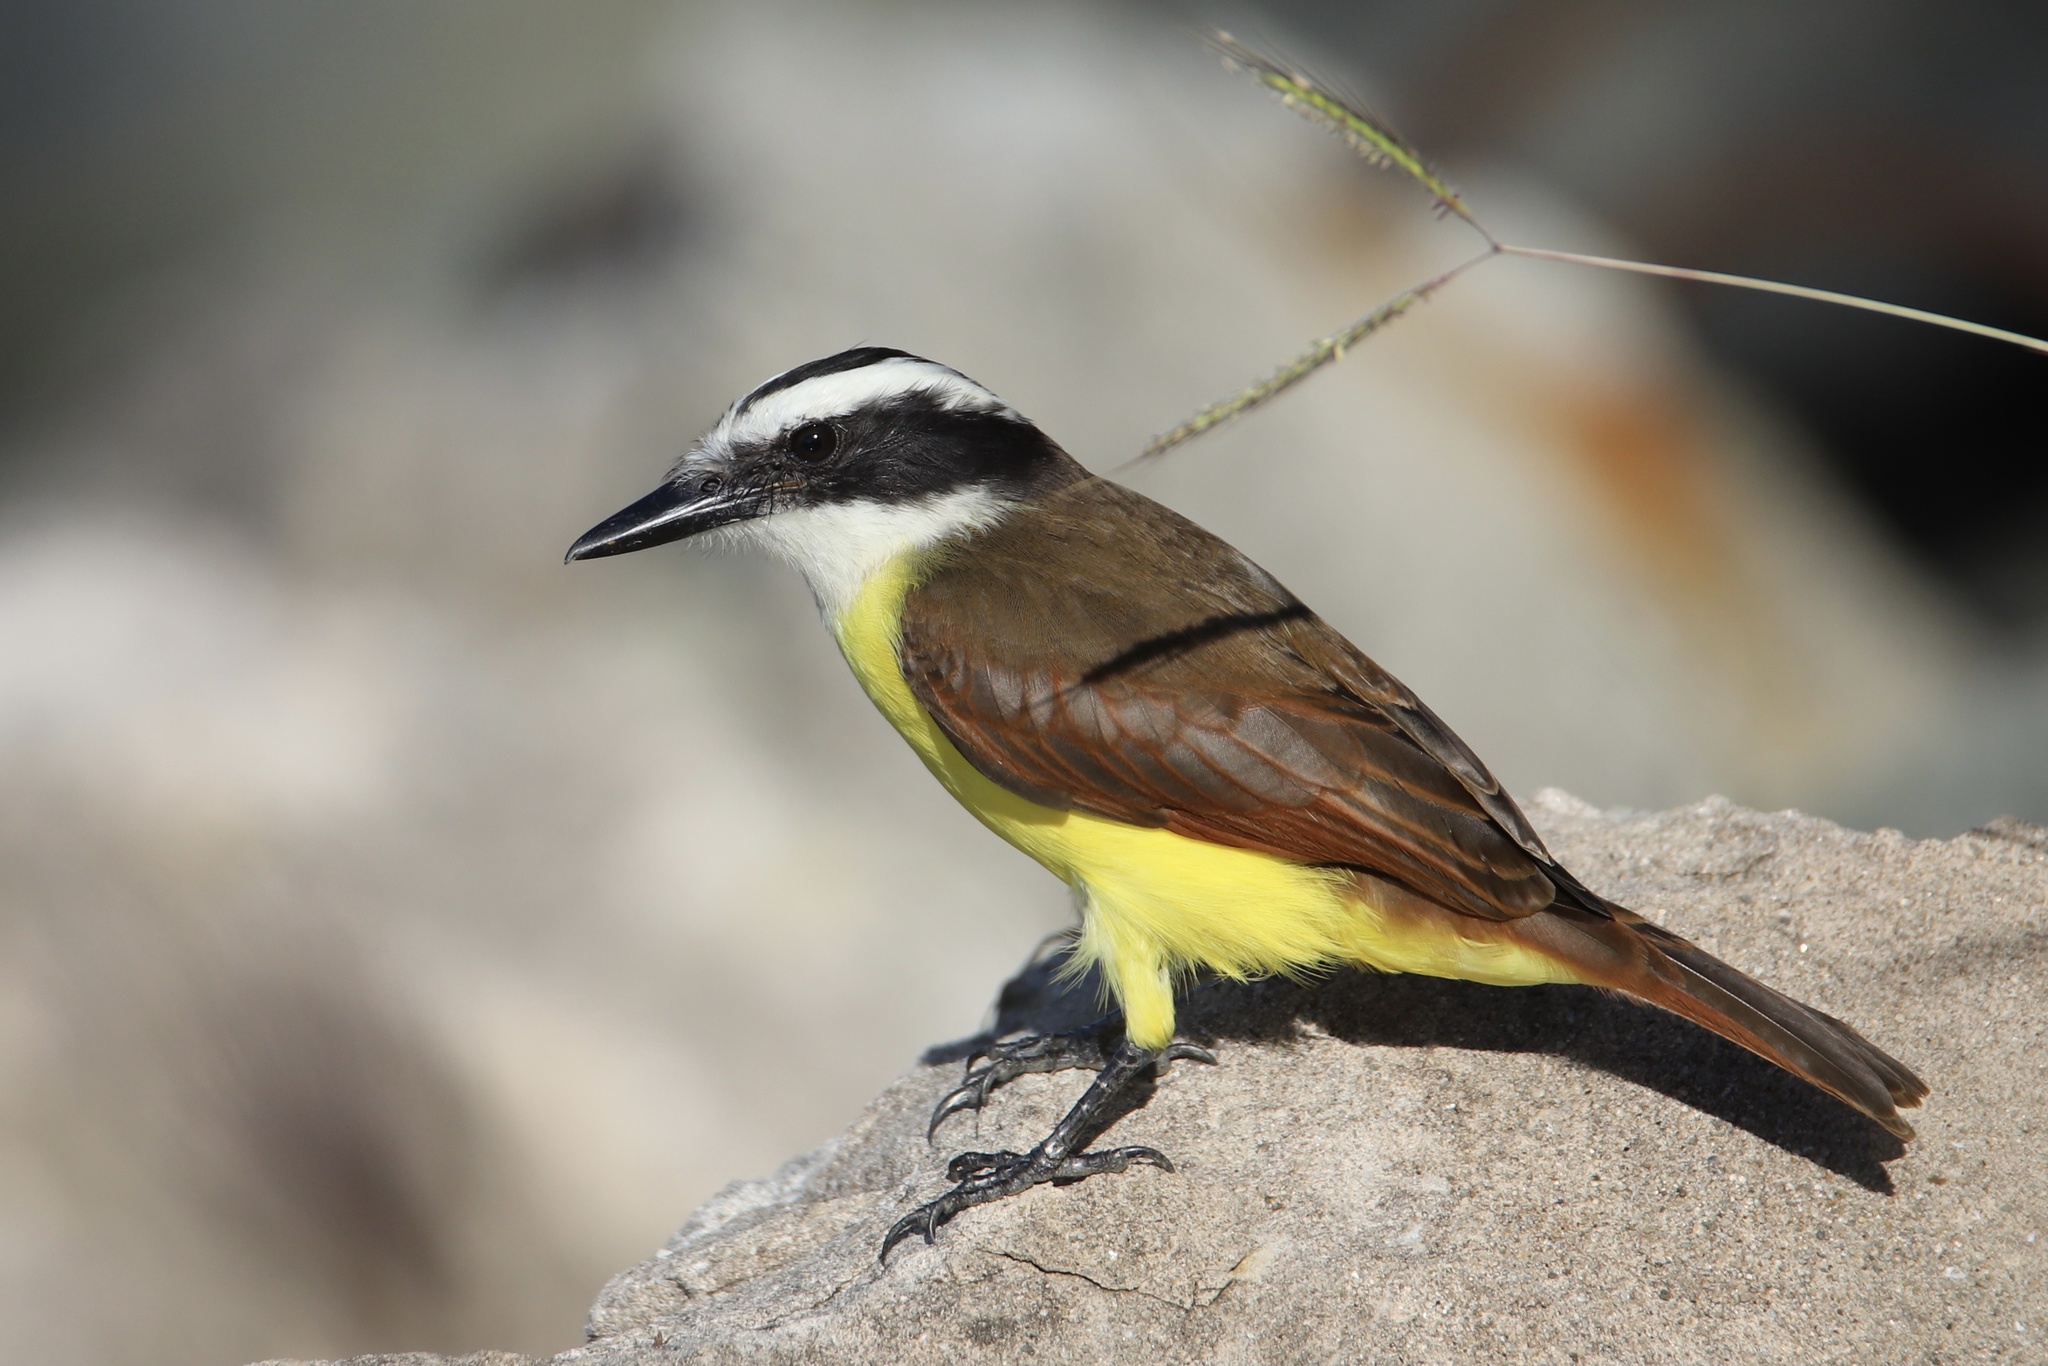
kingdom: Animalia
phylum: Chordata
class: Aves
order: Passeriformes
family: Tyrannidae
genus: Pitangus
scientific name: Pitangus sulphuratus
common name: Great kiskadee
